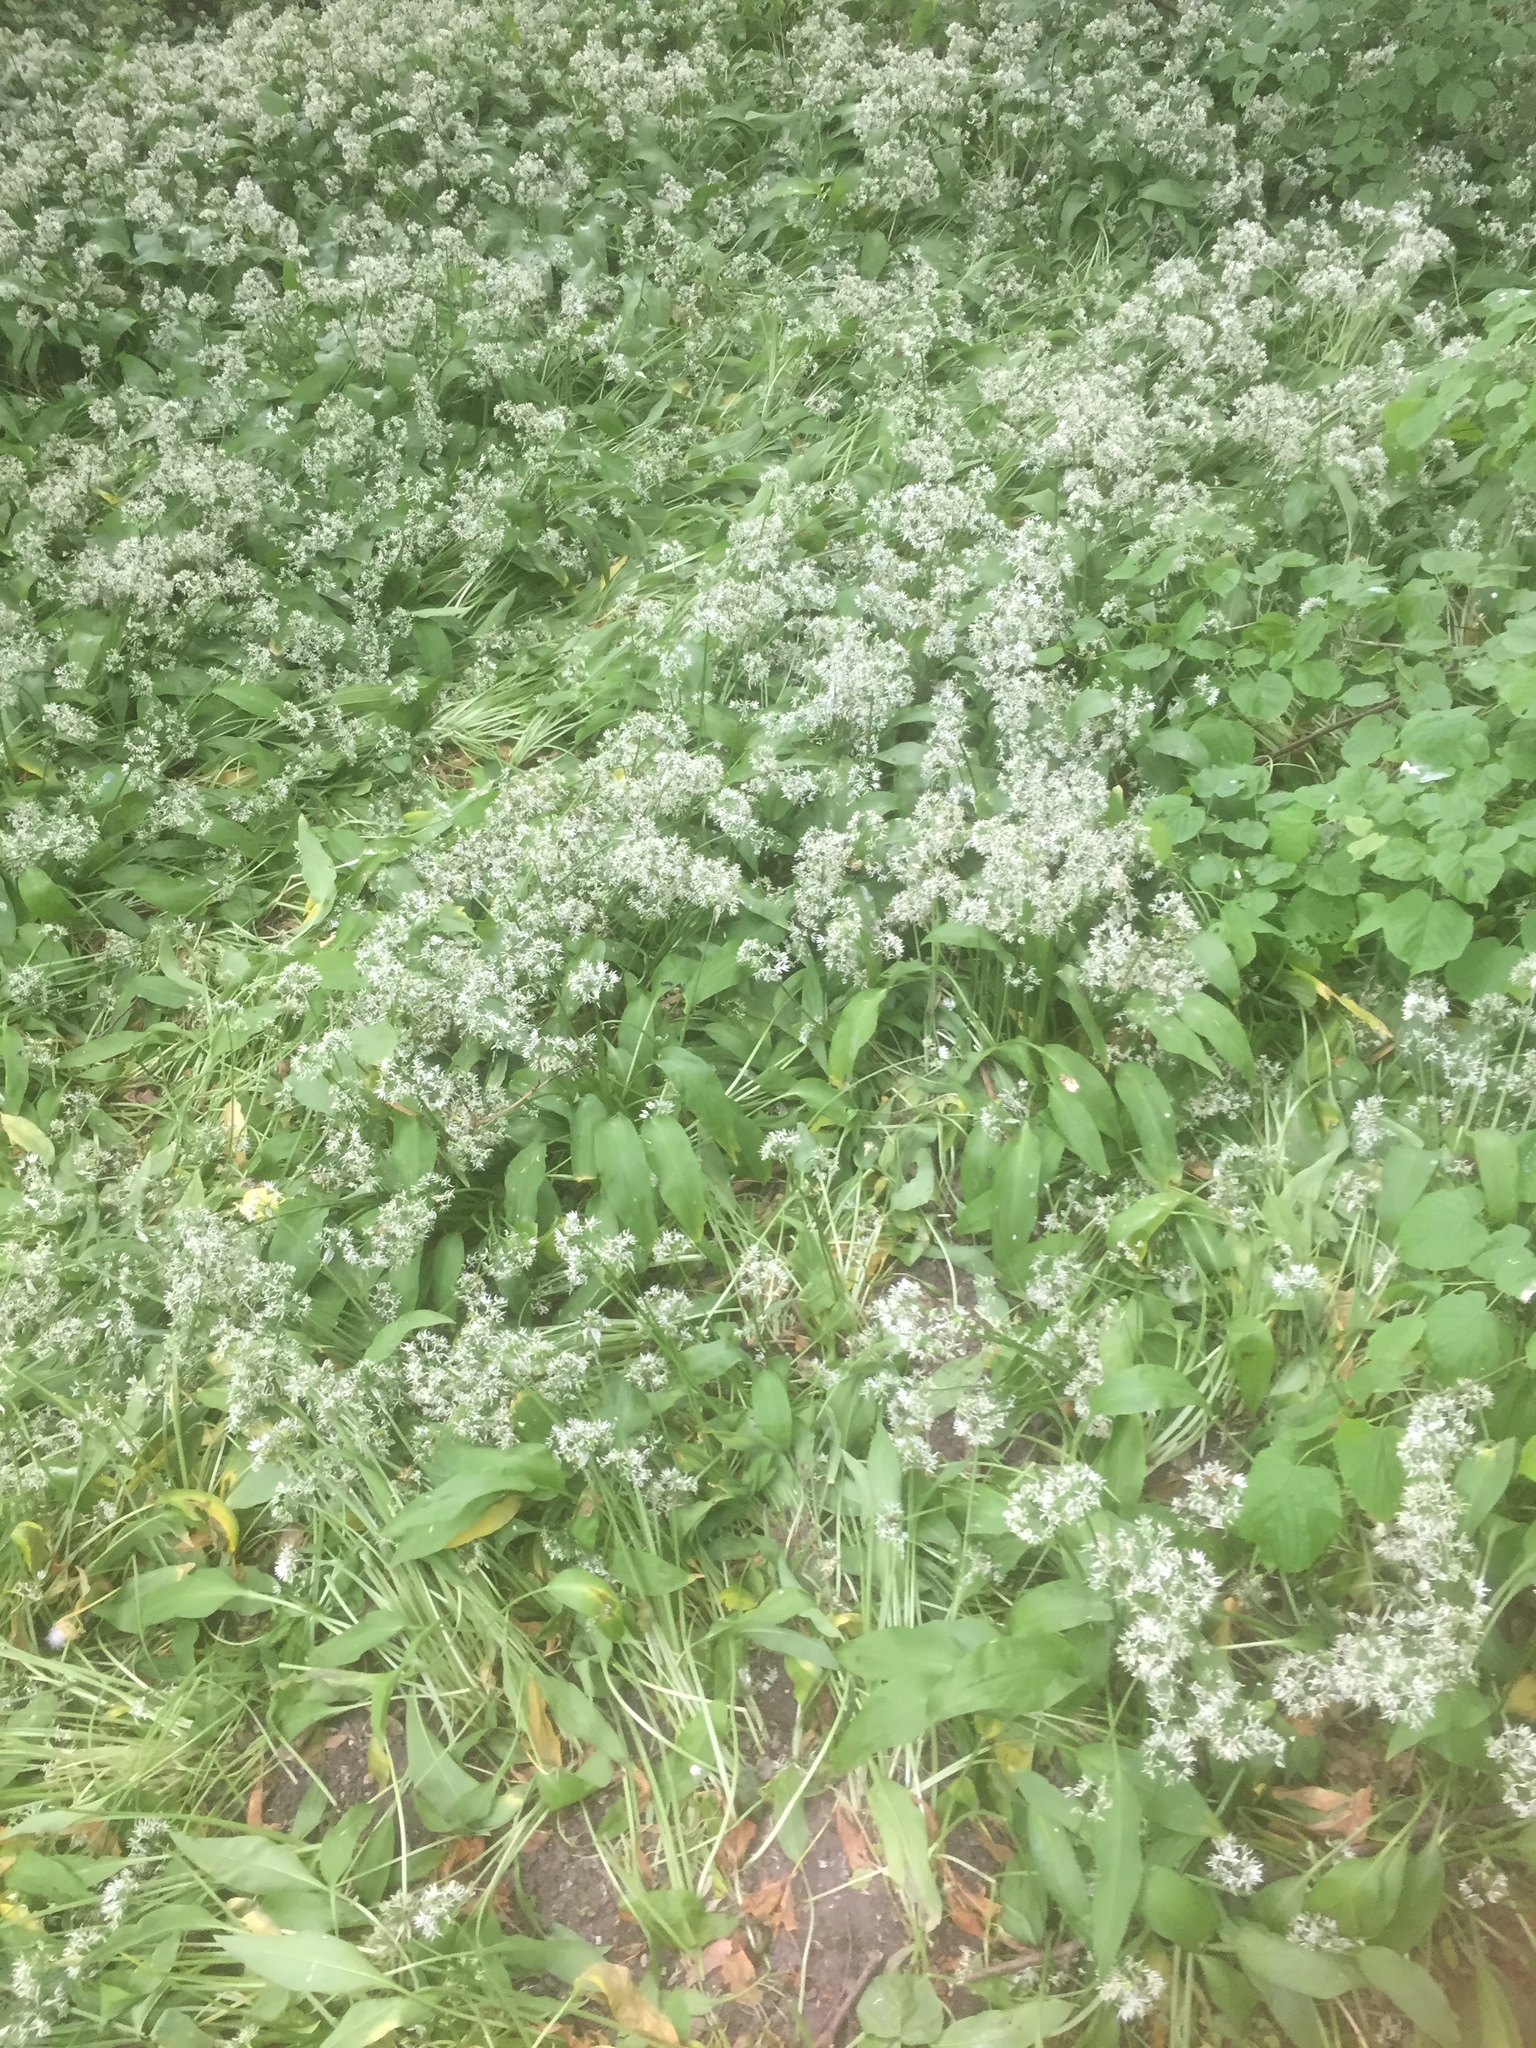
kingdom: Plantae
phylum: Tracheophyta
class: Liliopsida
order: Asparagales
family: Amaryllidaceae
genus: Allium
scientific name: Allium ursinum
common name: Ramsons
